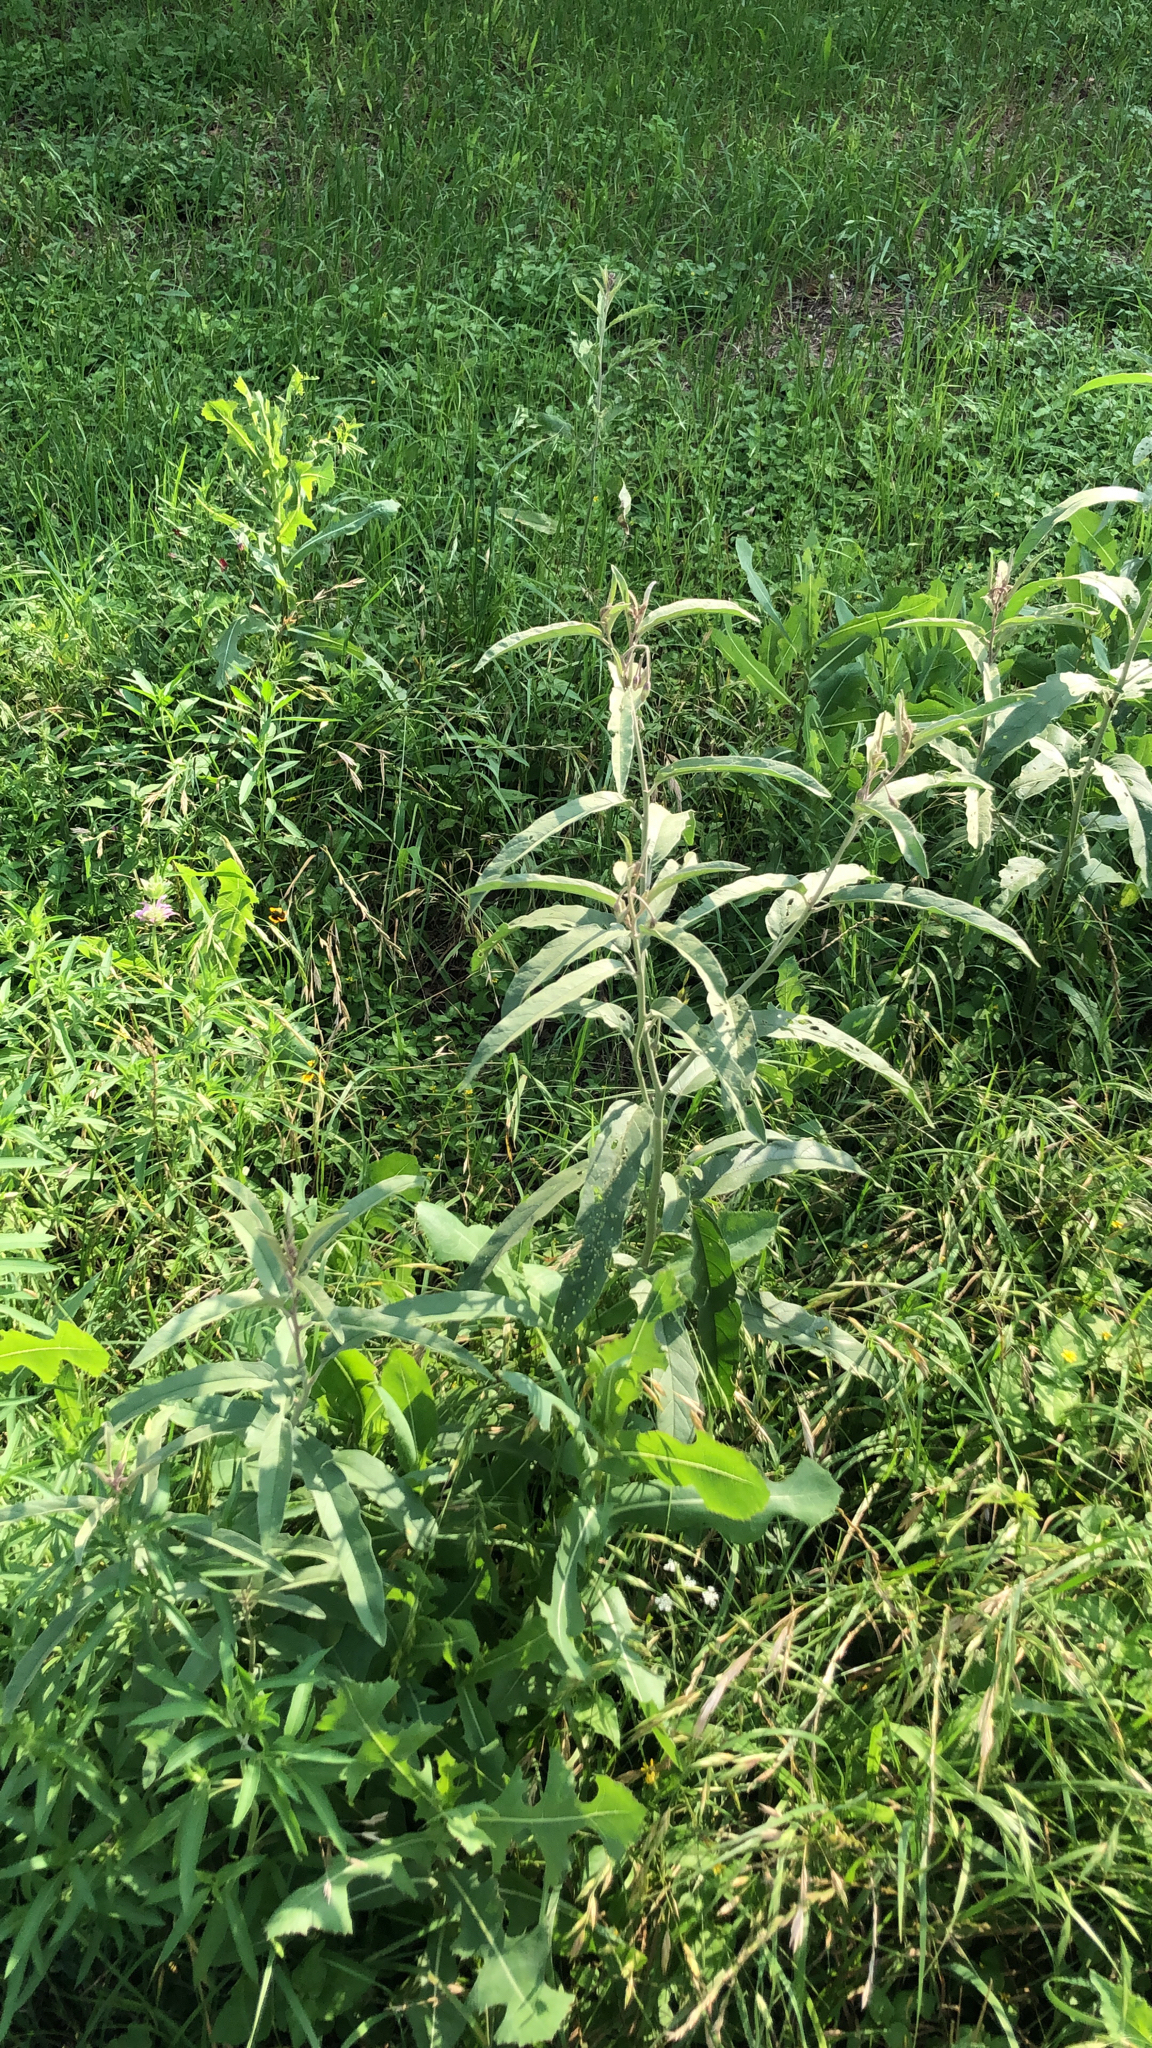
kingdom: Plantae
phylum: Tracheophyta
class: Magnoliopsida
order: Solanales
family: Solanaceae
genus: Solanum
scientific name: Solanum elaeagnifolium
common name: Silverleaf nightshade
